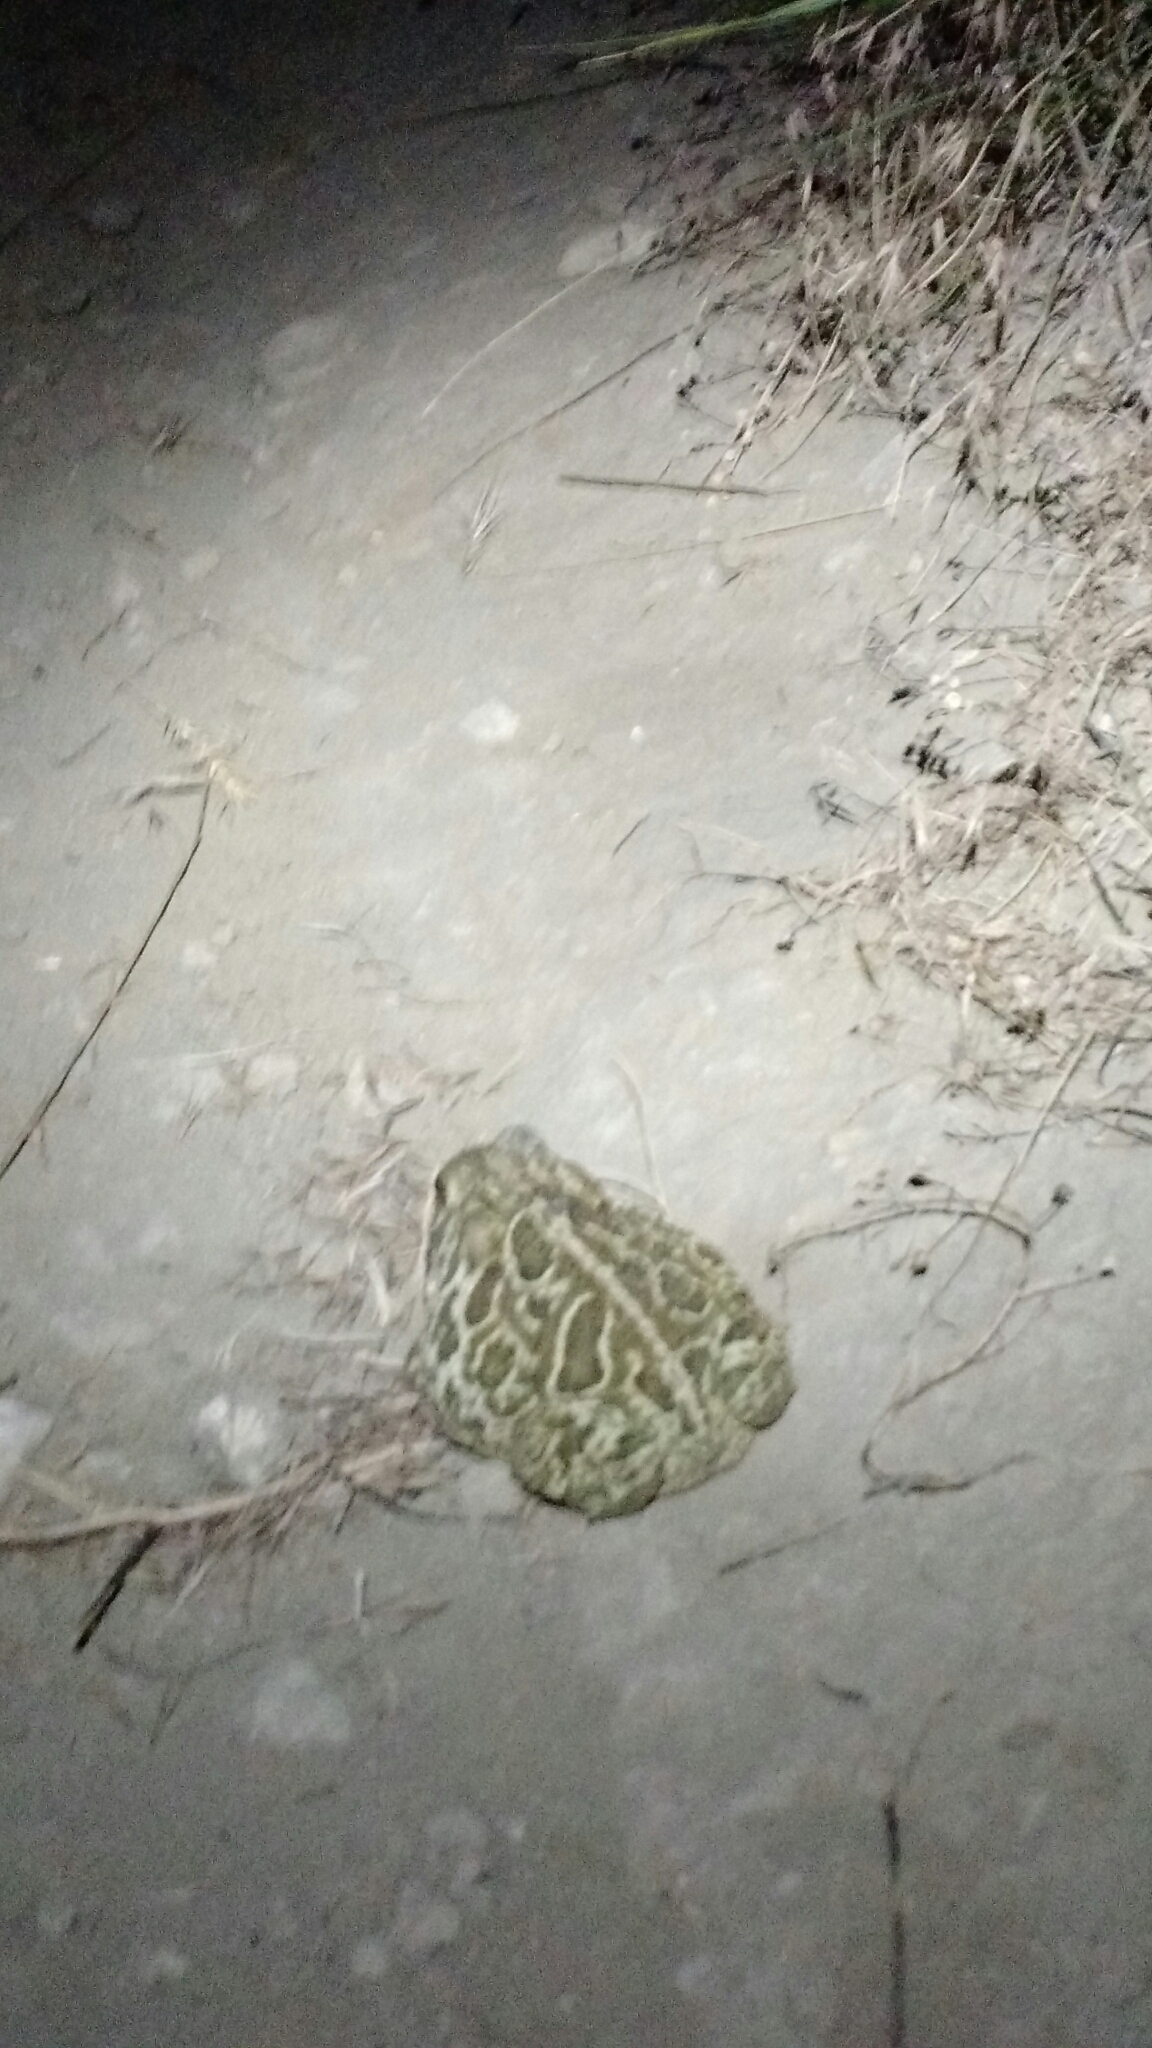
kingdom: Animalia
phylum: Chordata
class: Amphibia
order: Anura
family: Bufonidae
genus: Anaxyrus
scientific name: Anaxyrus cognatus
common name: Great plains toad
